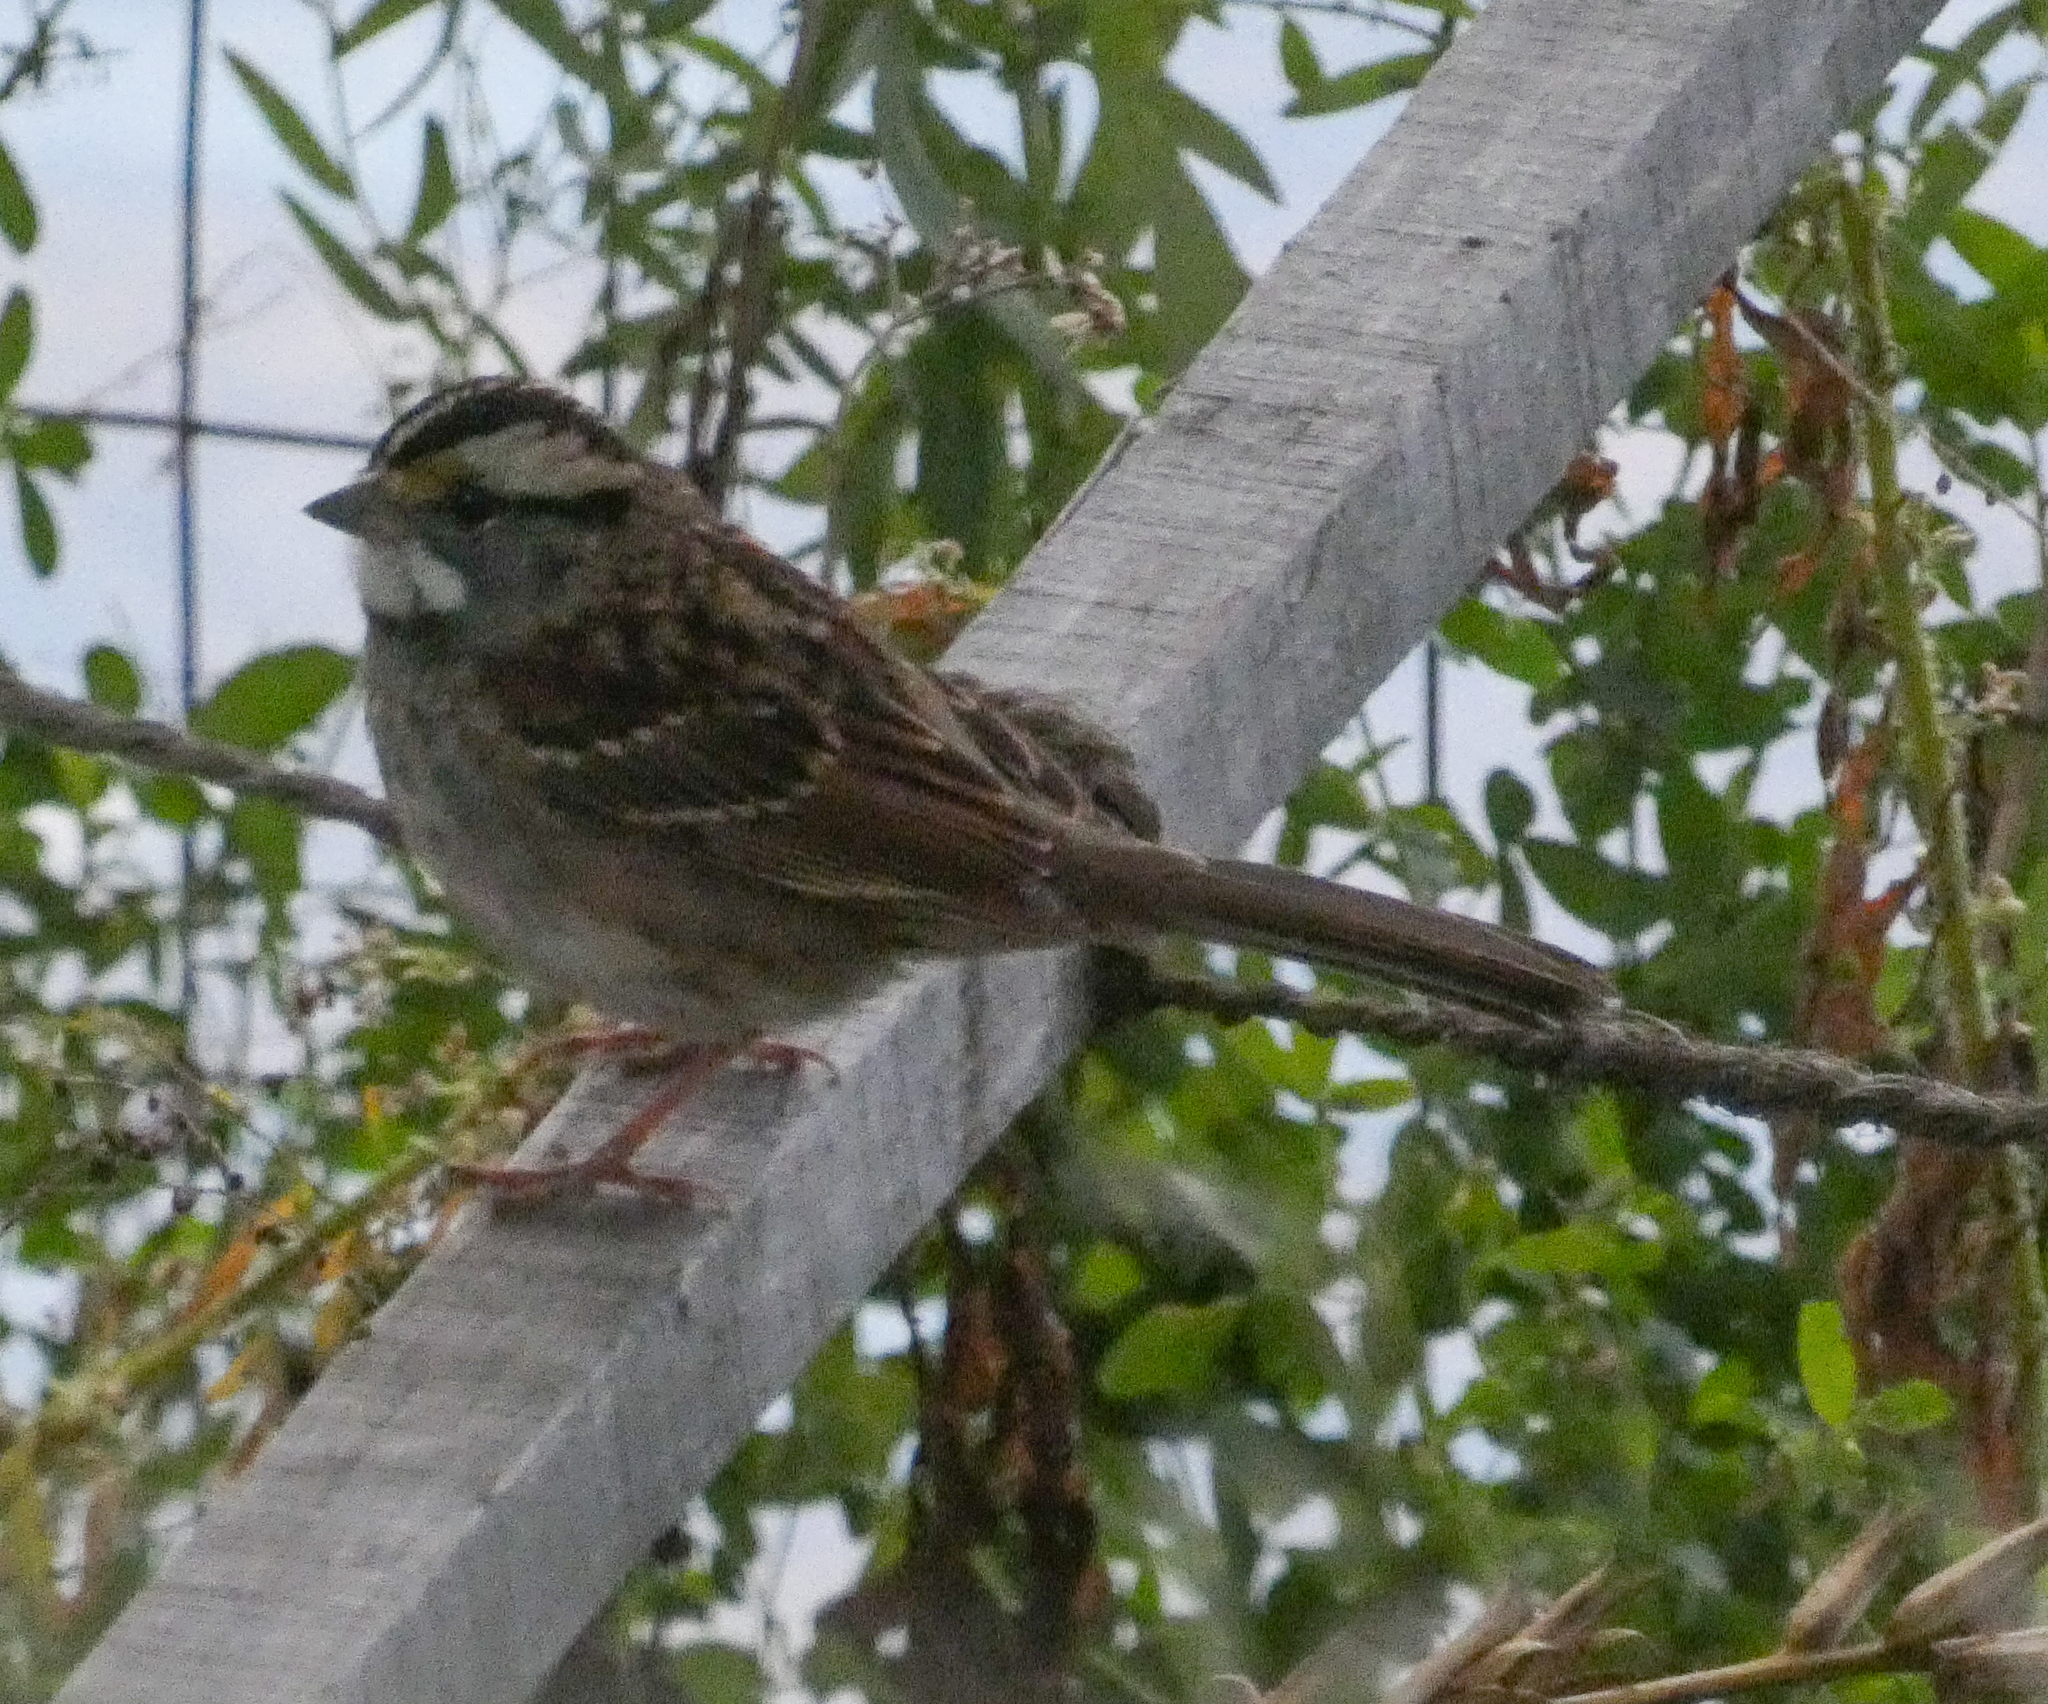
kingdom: Animalia
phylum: Chordata
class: Aves
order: Passeriformes
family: Passerellidae
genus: Zonotrichia
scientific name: Zonotrichia albicollis
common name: White-throated sparrow
